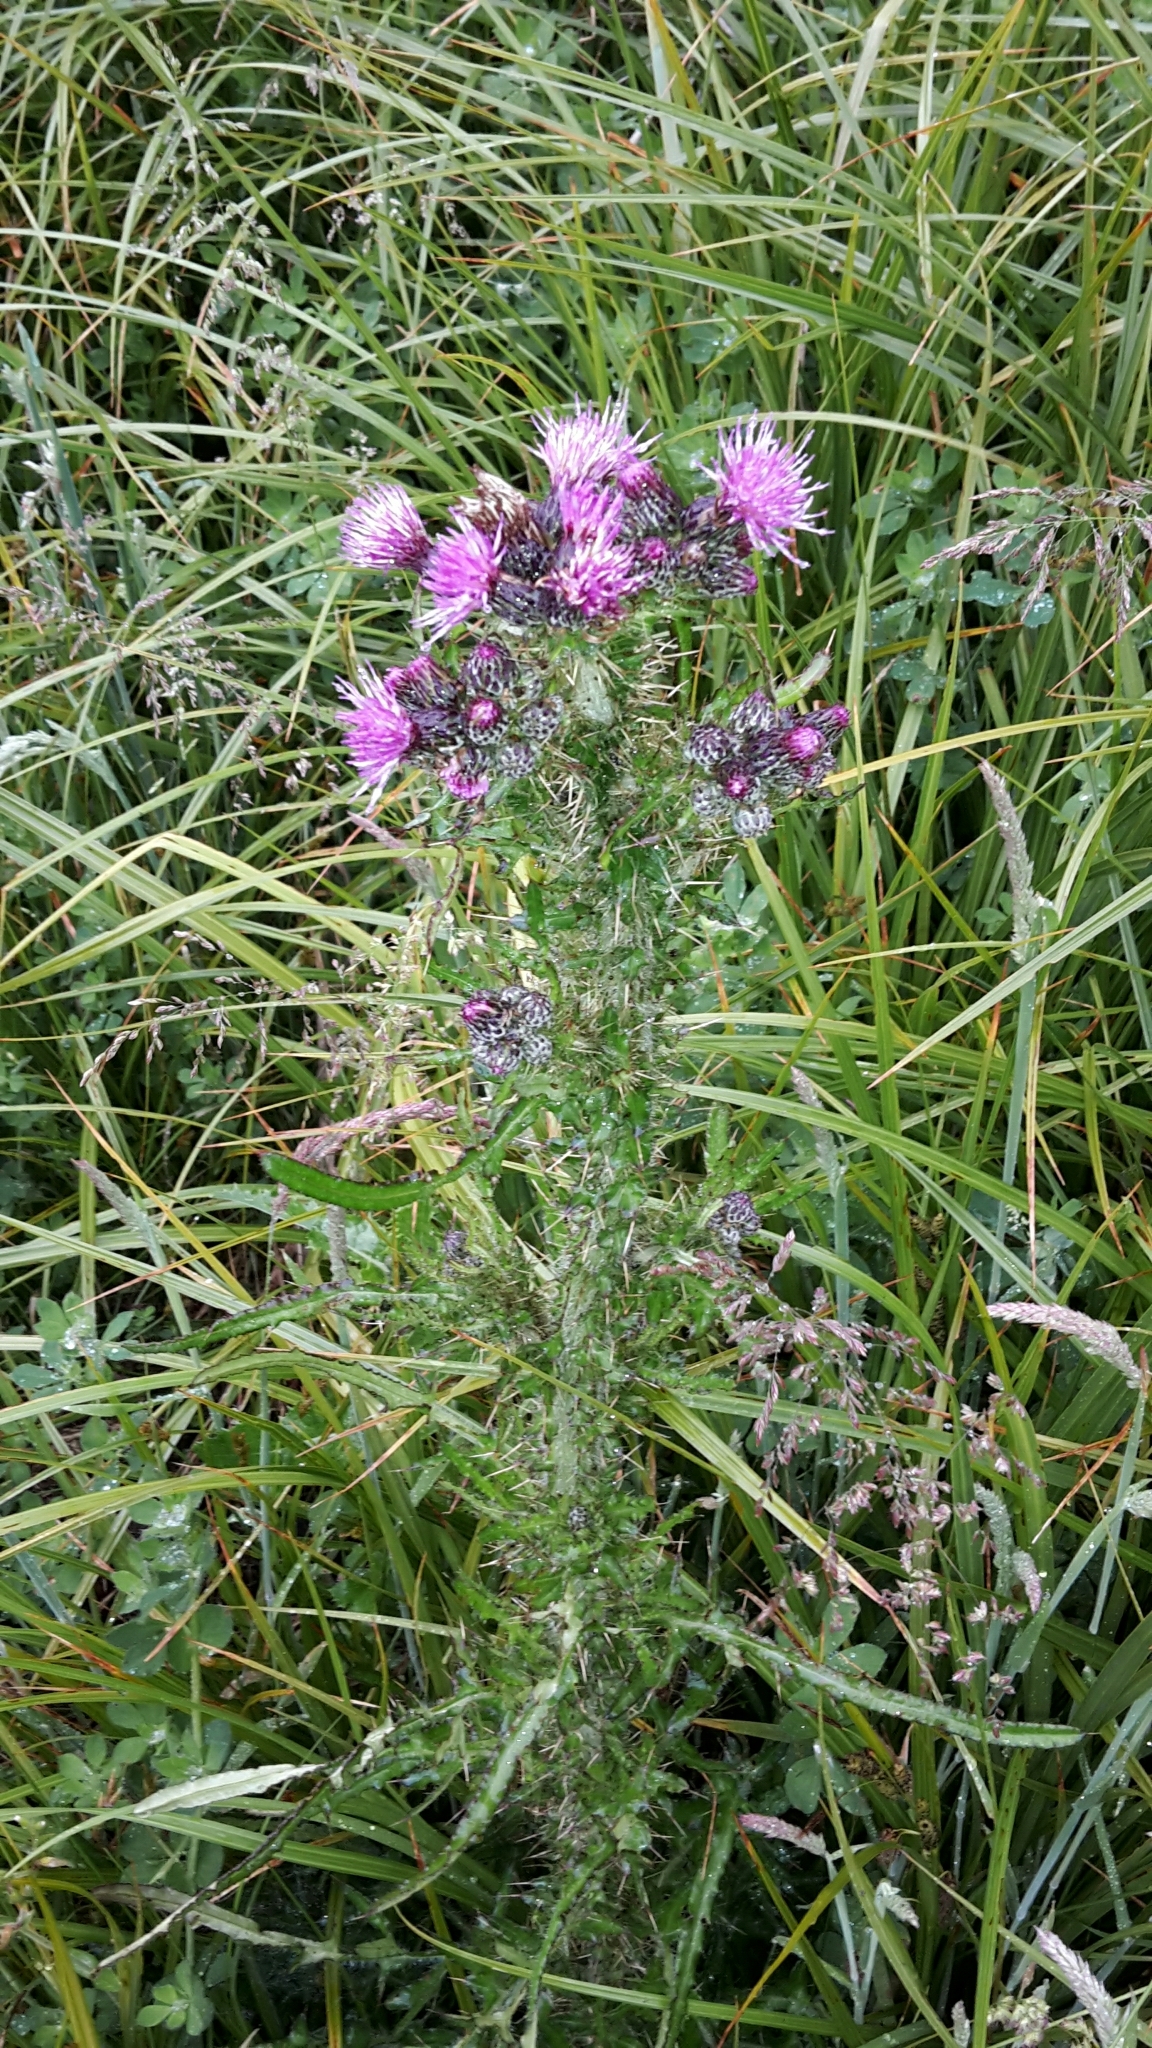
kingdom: Plantae
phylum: Tracheophyta
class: Magnoliopsida
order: Asterales
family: Asteraceae
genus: Cirsium
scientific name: Cirsium palustre
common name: Marsh thistle
